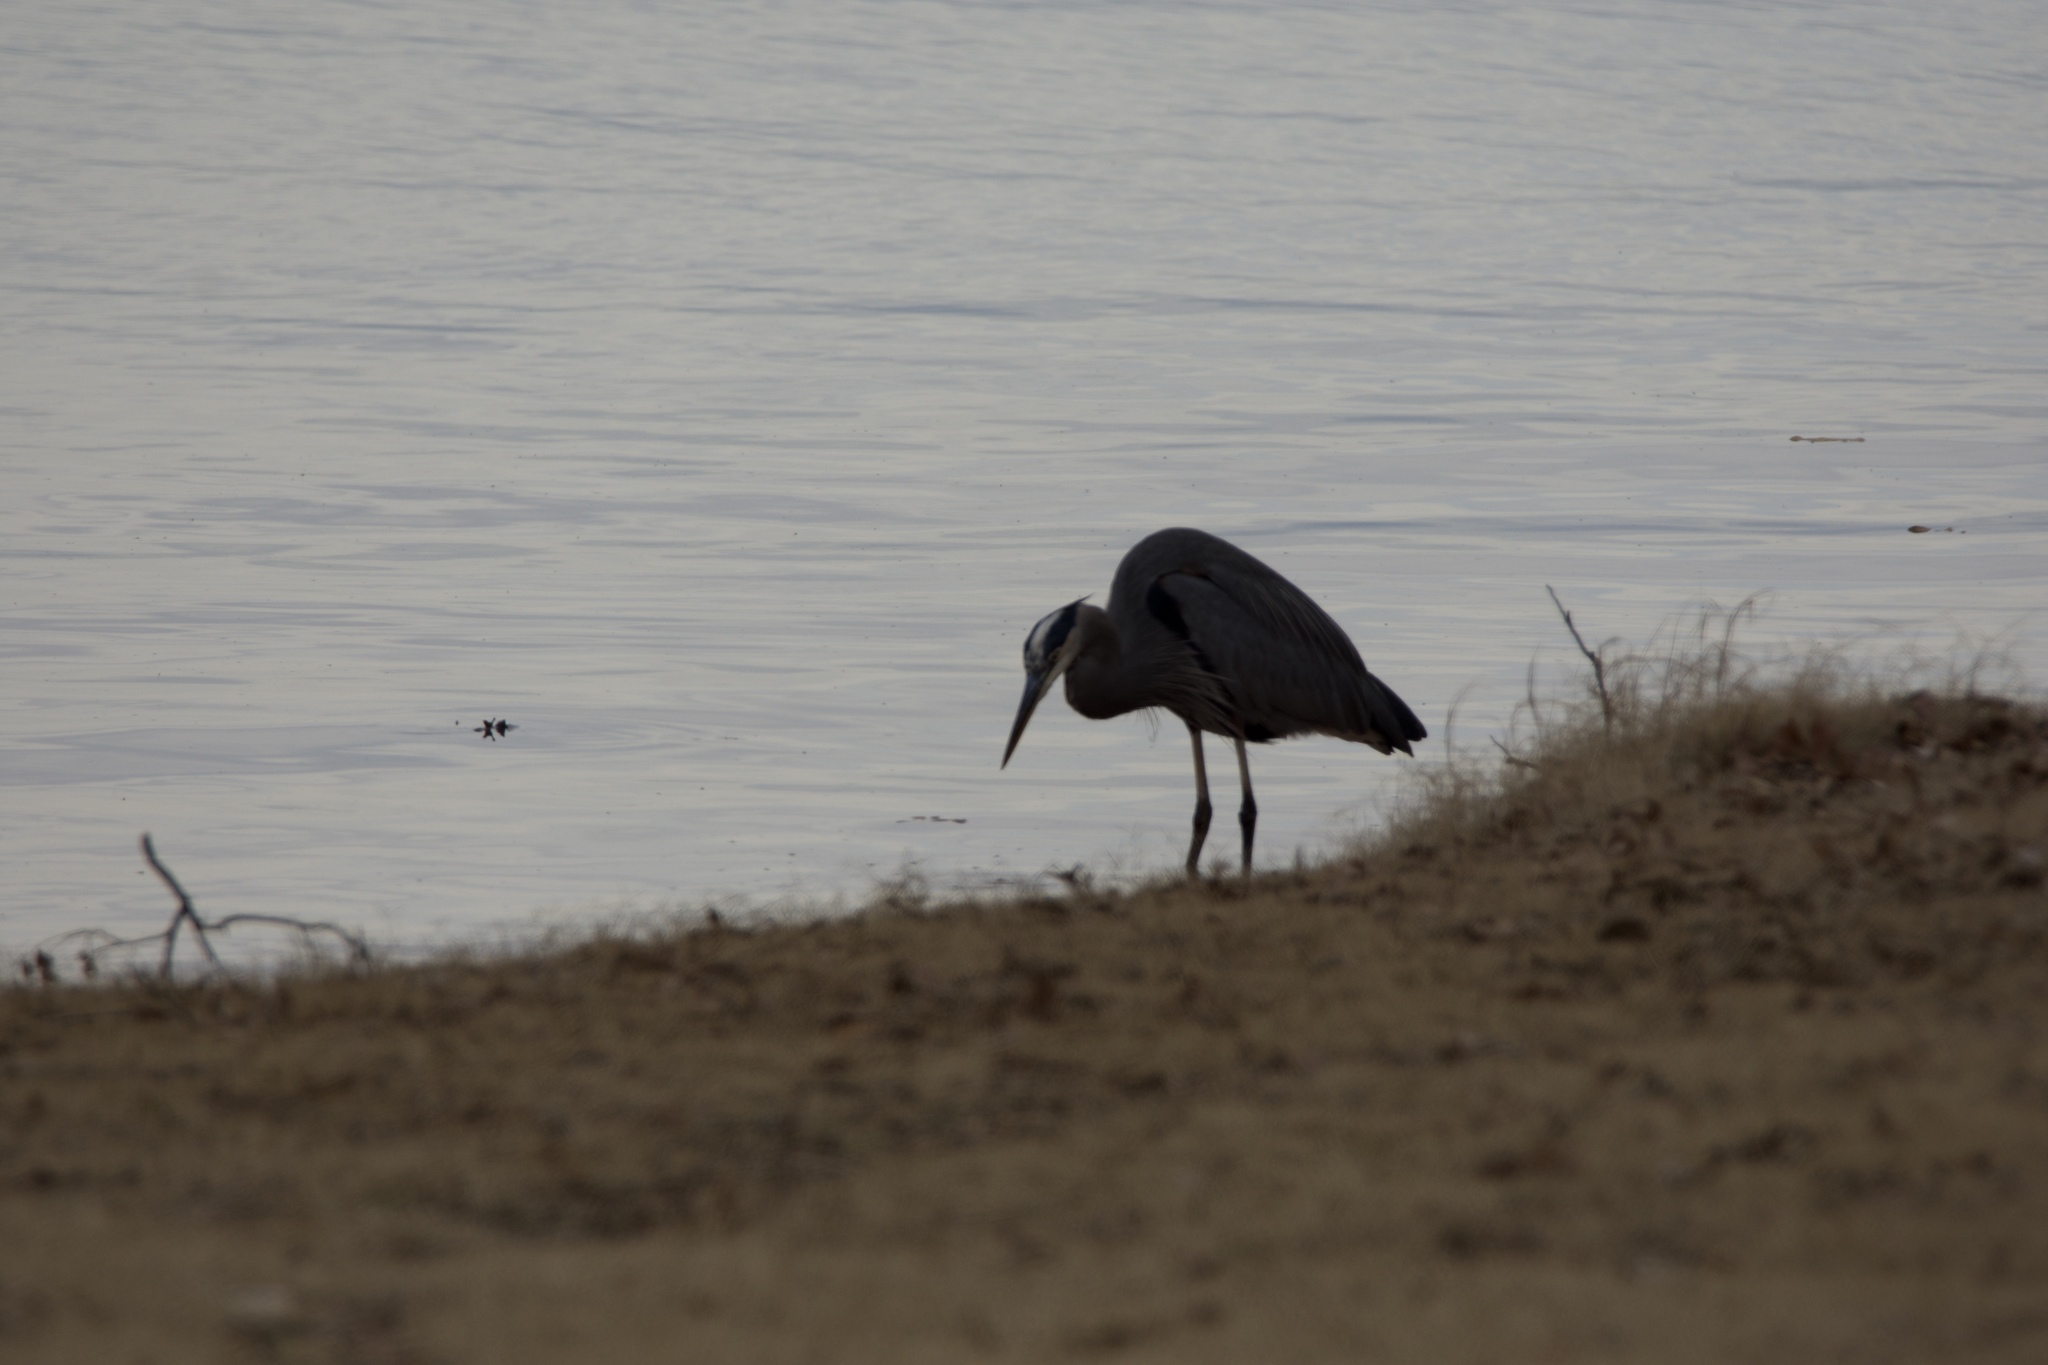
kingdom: Animalia
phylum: Chordata
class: Aves
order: Pelecaniformes
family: Ardeidae
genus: Ardea
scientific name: Ardea herodias
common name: Great blue heron
